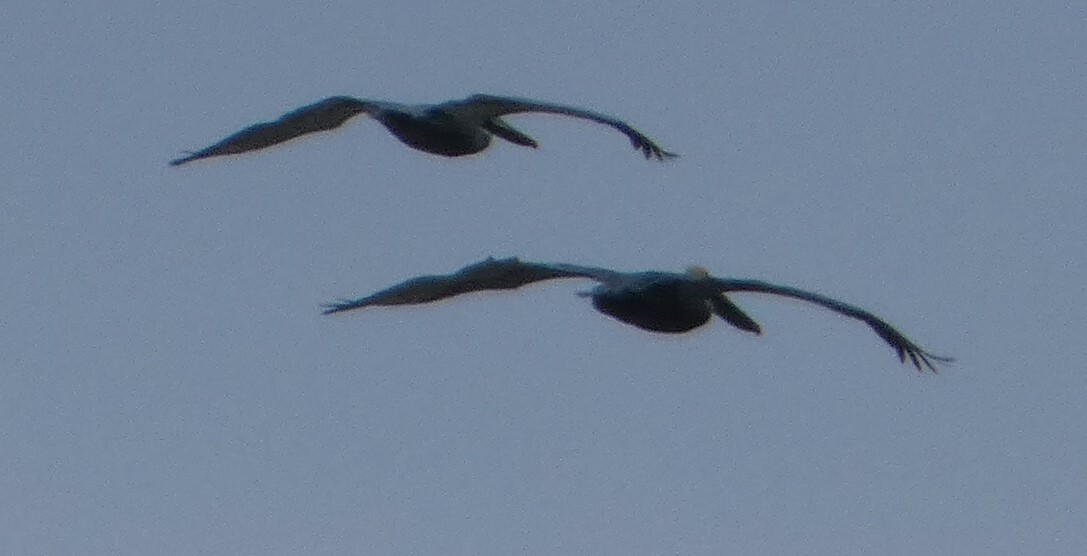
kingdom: Animalia
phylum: Chordata
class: Aves
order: Pelecaniformes
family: Pelecanidae
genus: Pelecanus
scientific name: Pelecanus occidentalis
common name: Brown pelican
